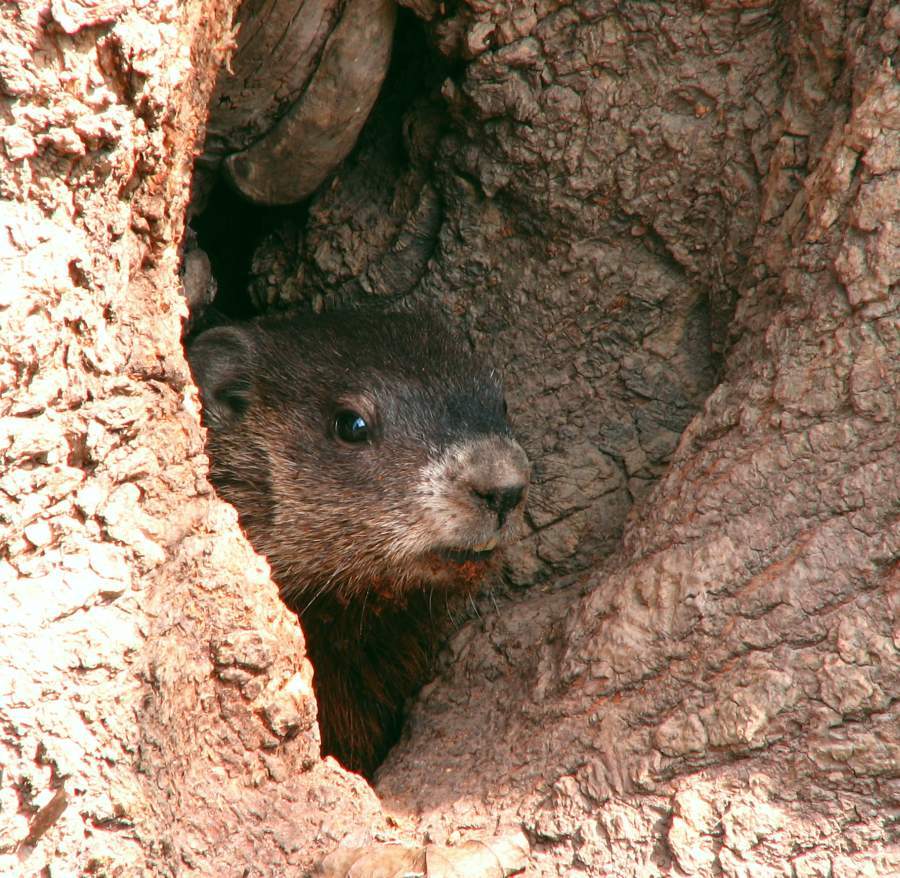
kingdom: Animalia
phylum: Chordata
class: Mammalia
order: Rodentia
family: Sciuridae
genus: Marmota
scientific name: Marmota monax
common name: Groundhog
